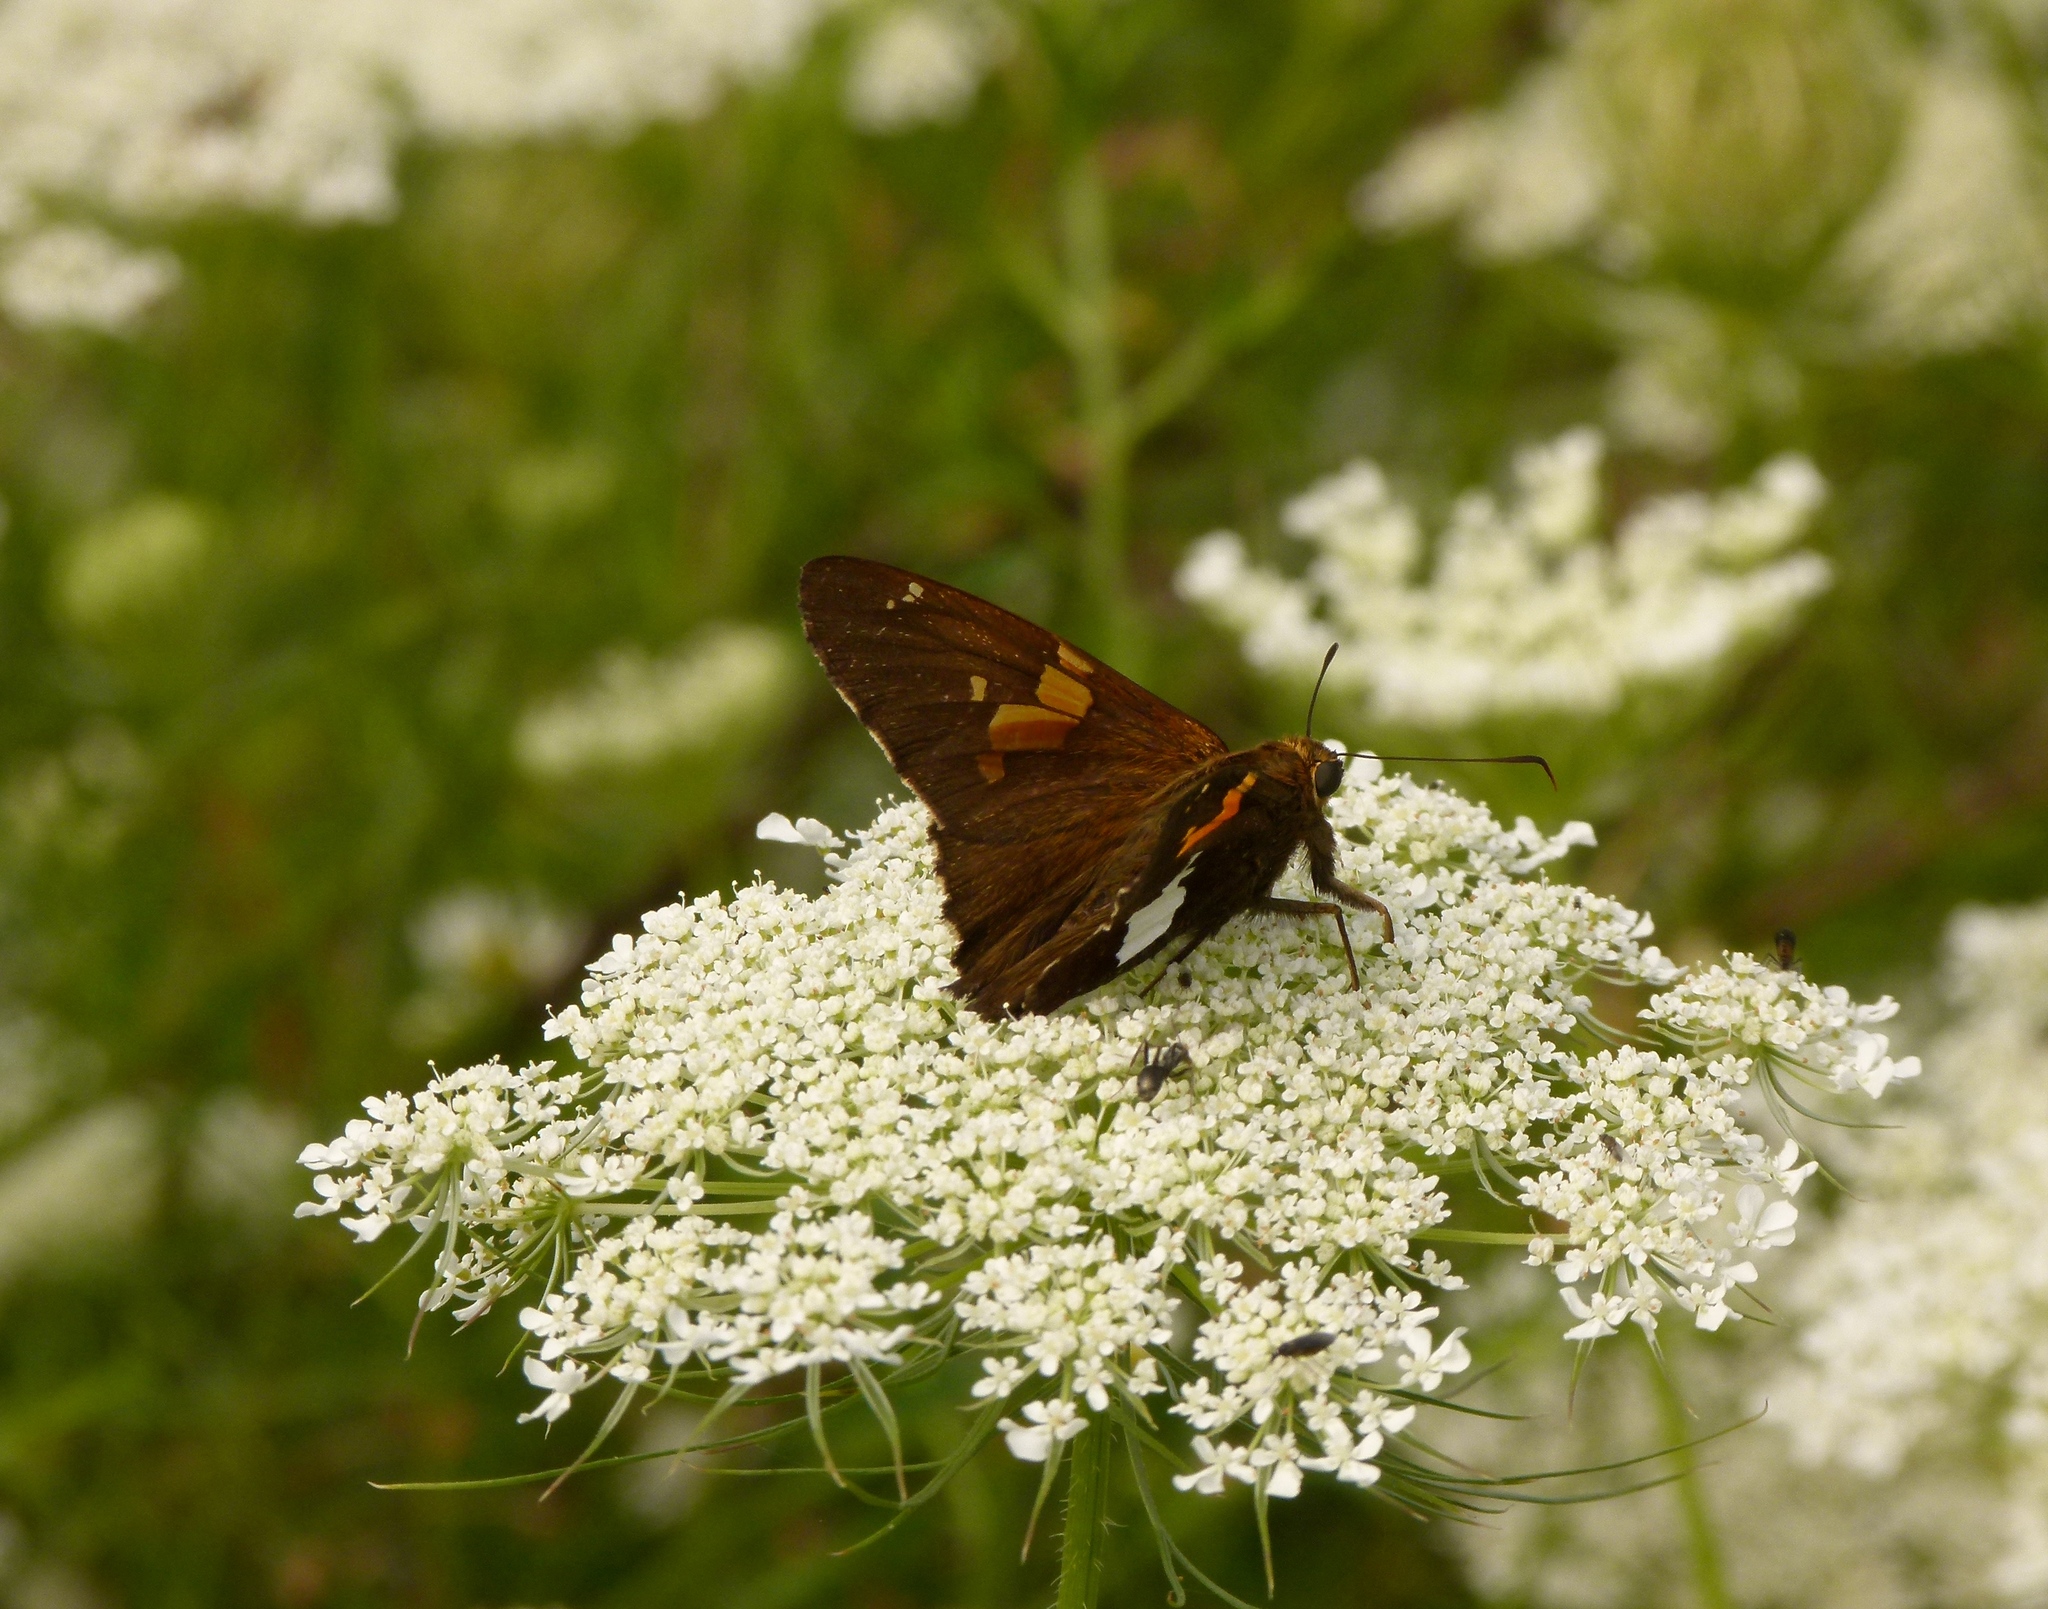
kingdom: Animalia
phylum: Arthropoda
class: Insecta
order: Lepidoptera
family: Hesperiidae
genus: Epargyreus
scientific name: Epargyreus clarus
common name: Silver-spotted skipper
